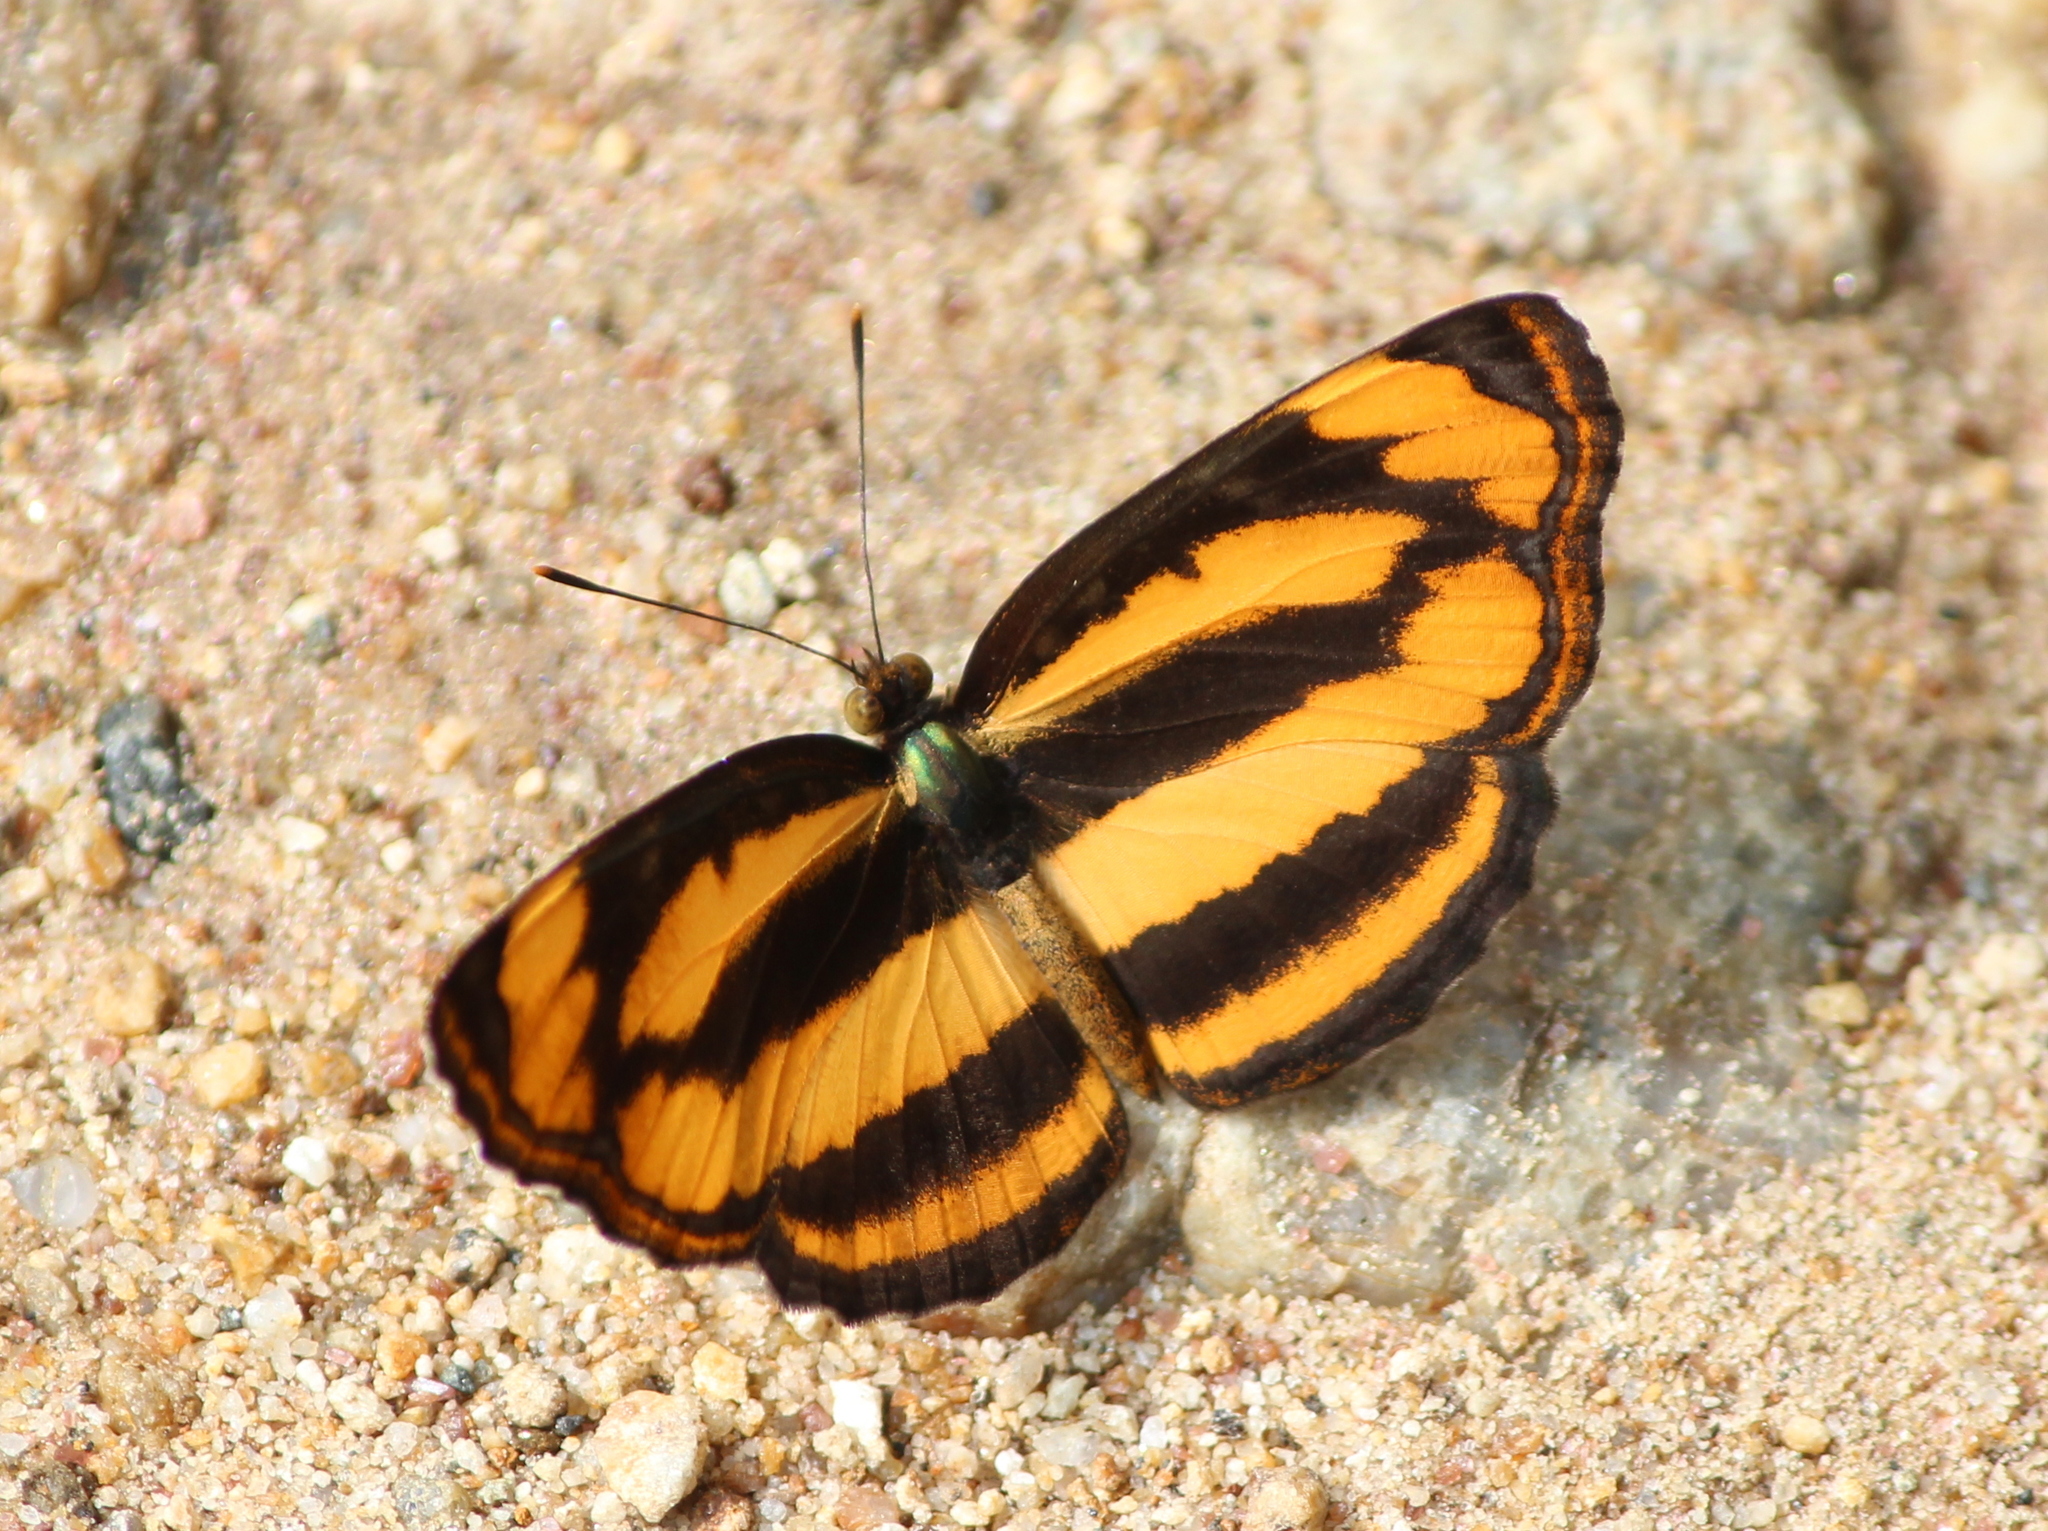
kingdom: Animalia
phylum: Arthropoda
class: Insecta
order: Lepidoptera
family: Nymphalidae
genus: Pantoporia
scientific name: Pantoporia hordonia
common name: Common lascar
